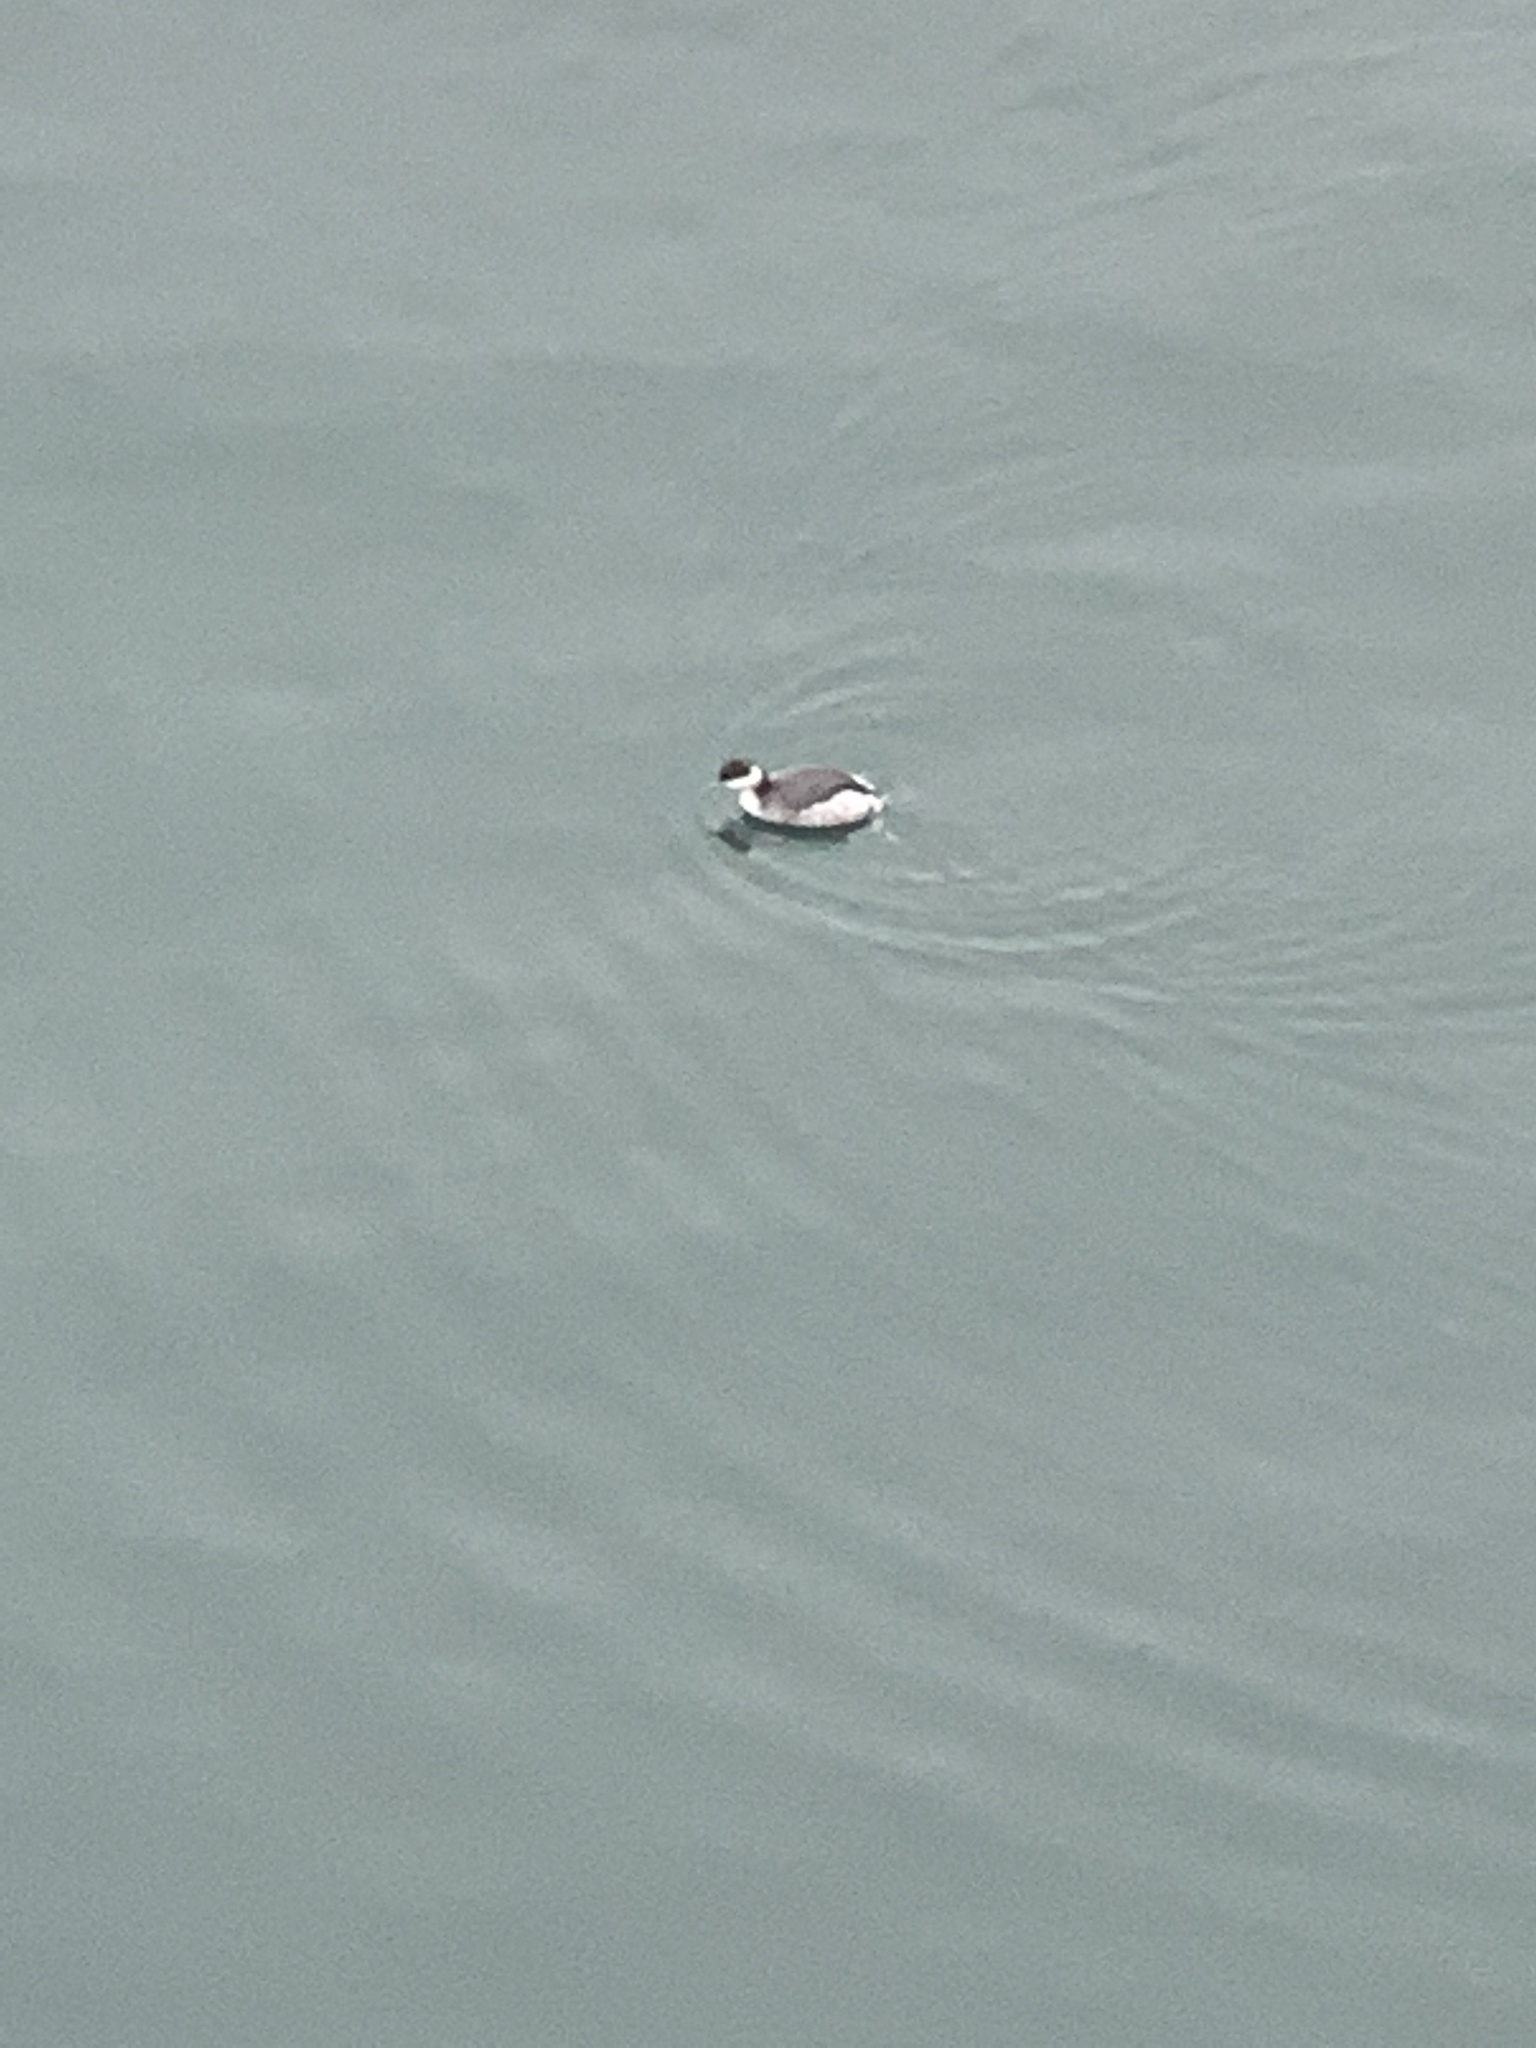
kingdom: Animalia
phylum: Chordata
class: Aves
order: Podicipediformes
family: Podicipedidae
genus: Podiceps
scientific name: Podiceps auritus
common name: Horned grebe
